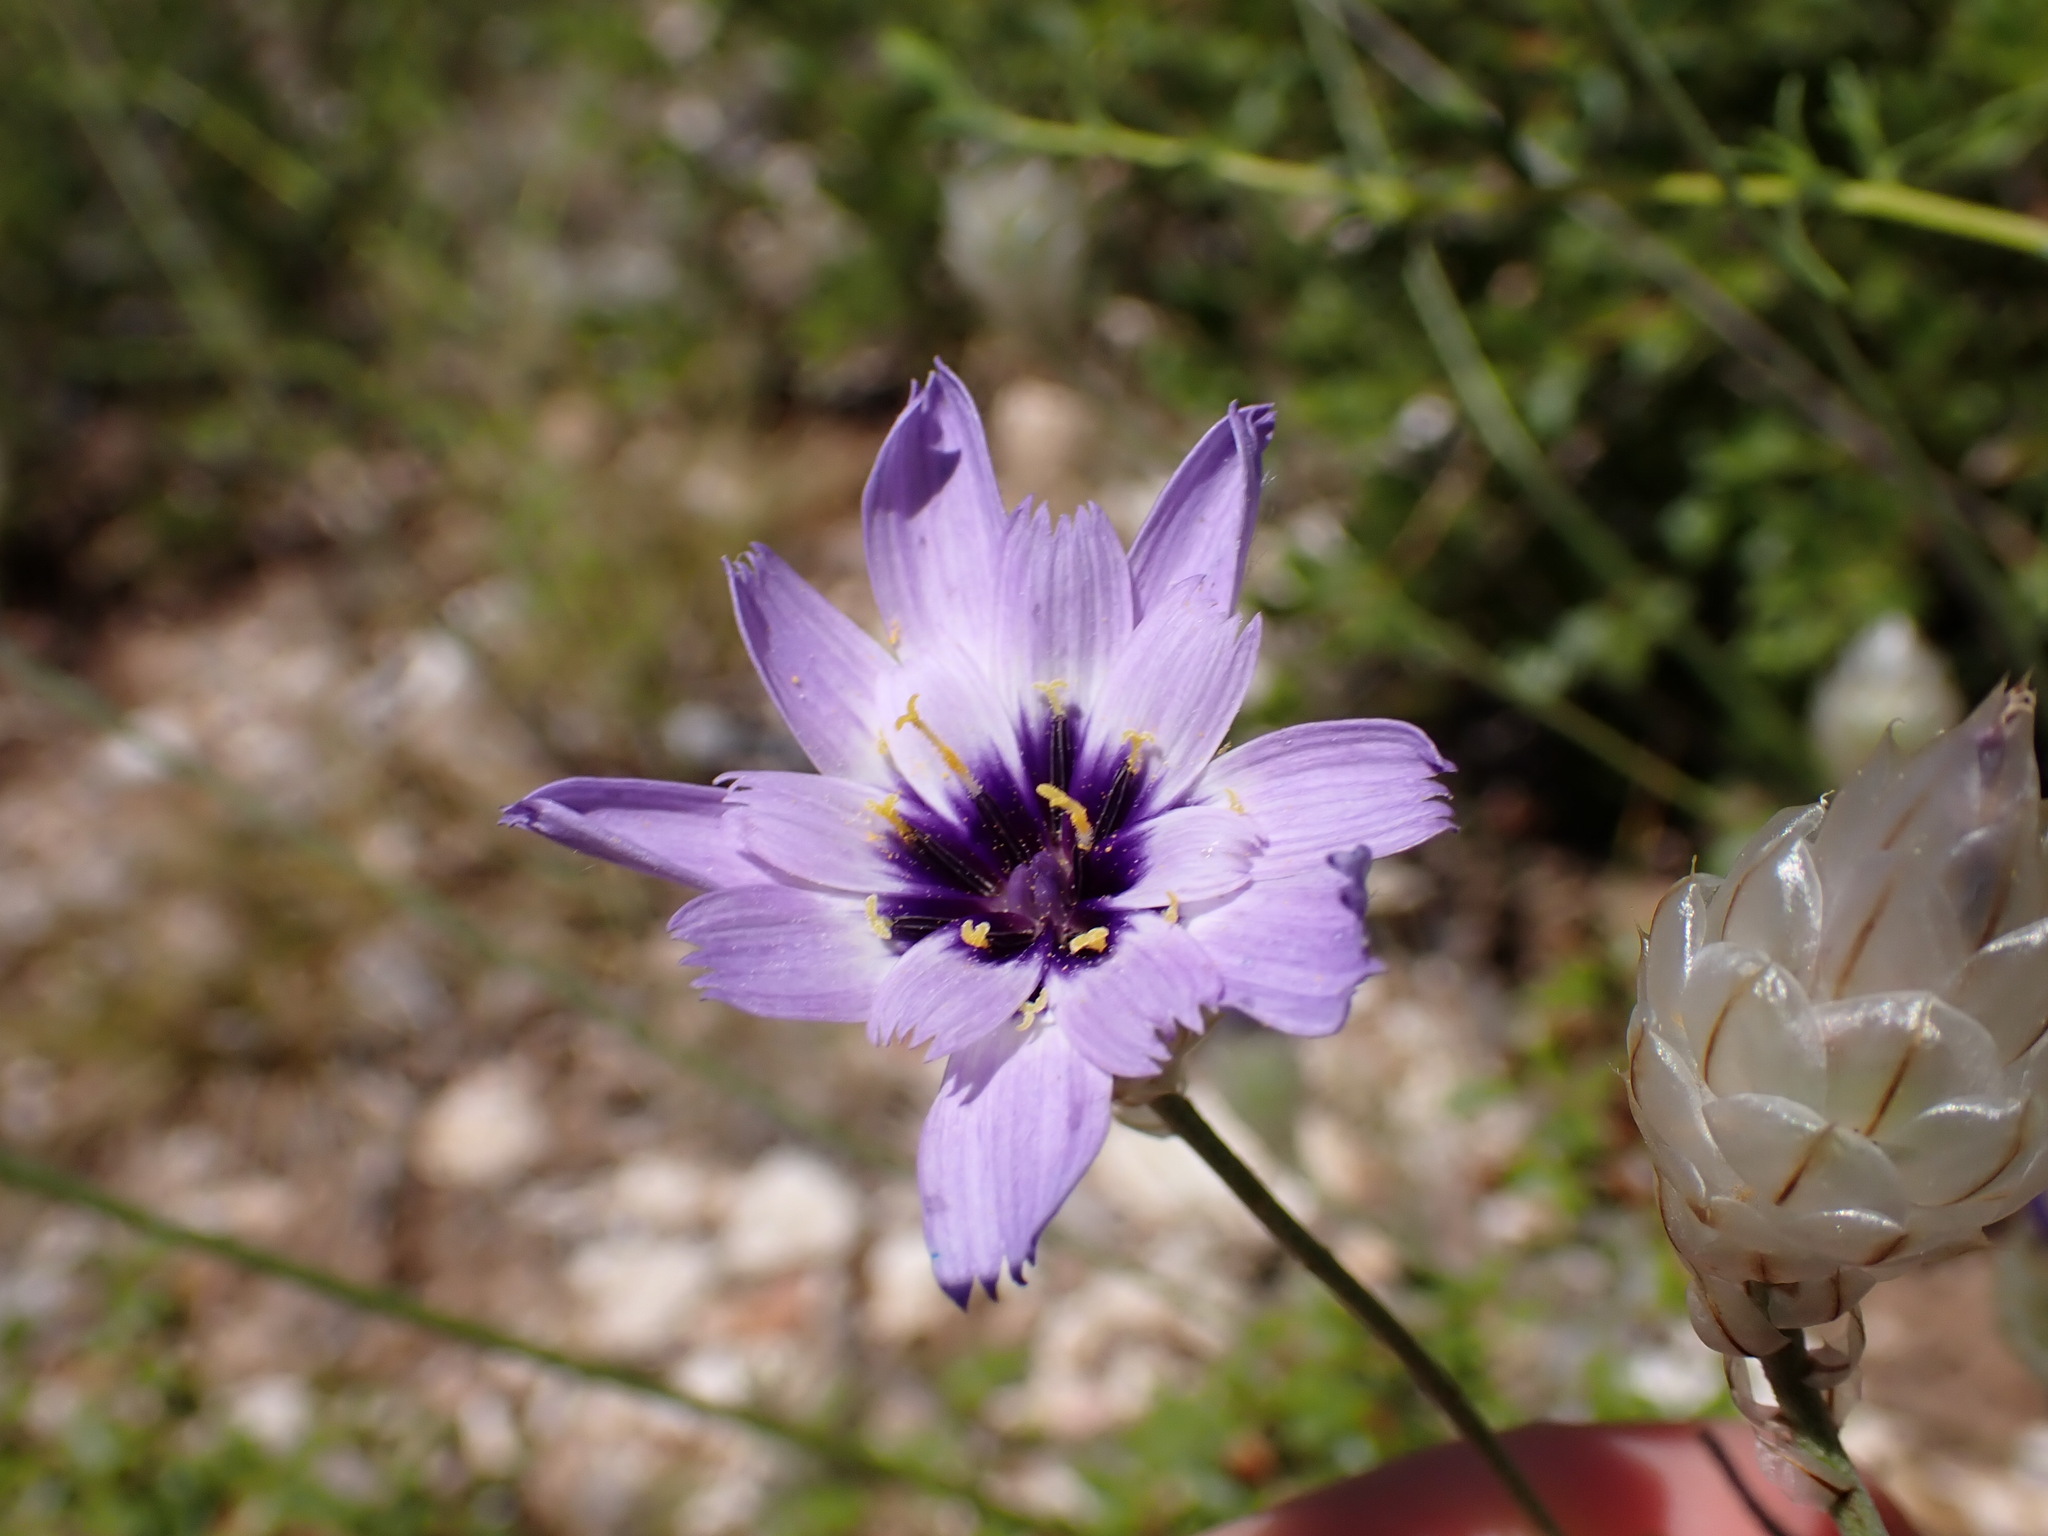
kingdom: Plantae
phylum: Tracheophyta
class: Magnoliopsida
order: Asterales
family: Asteraceae
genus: Catananche
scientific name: Catananche caerulea
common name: Blue cupidone
